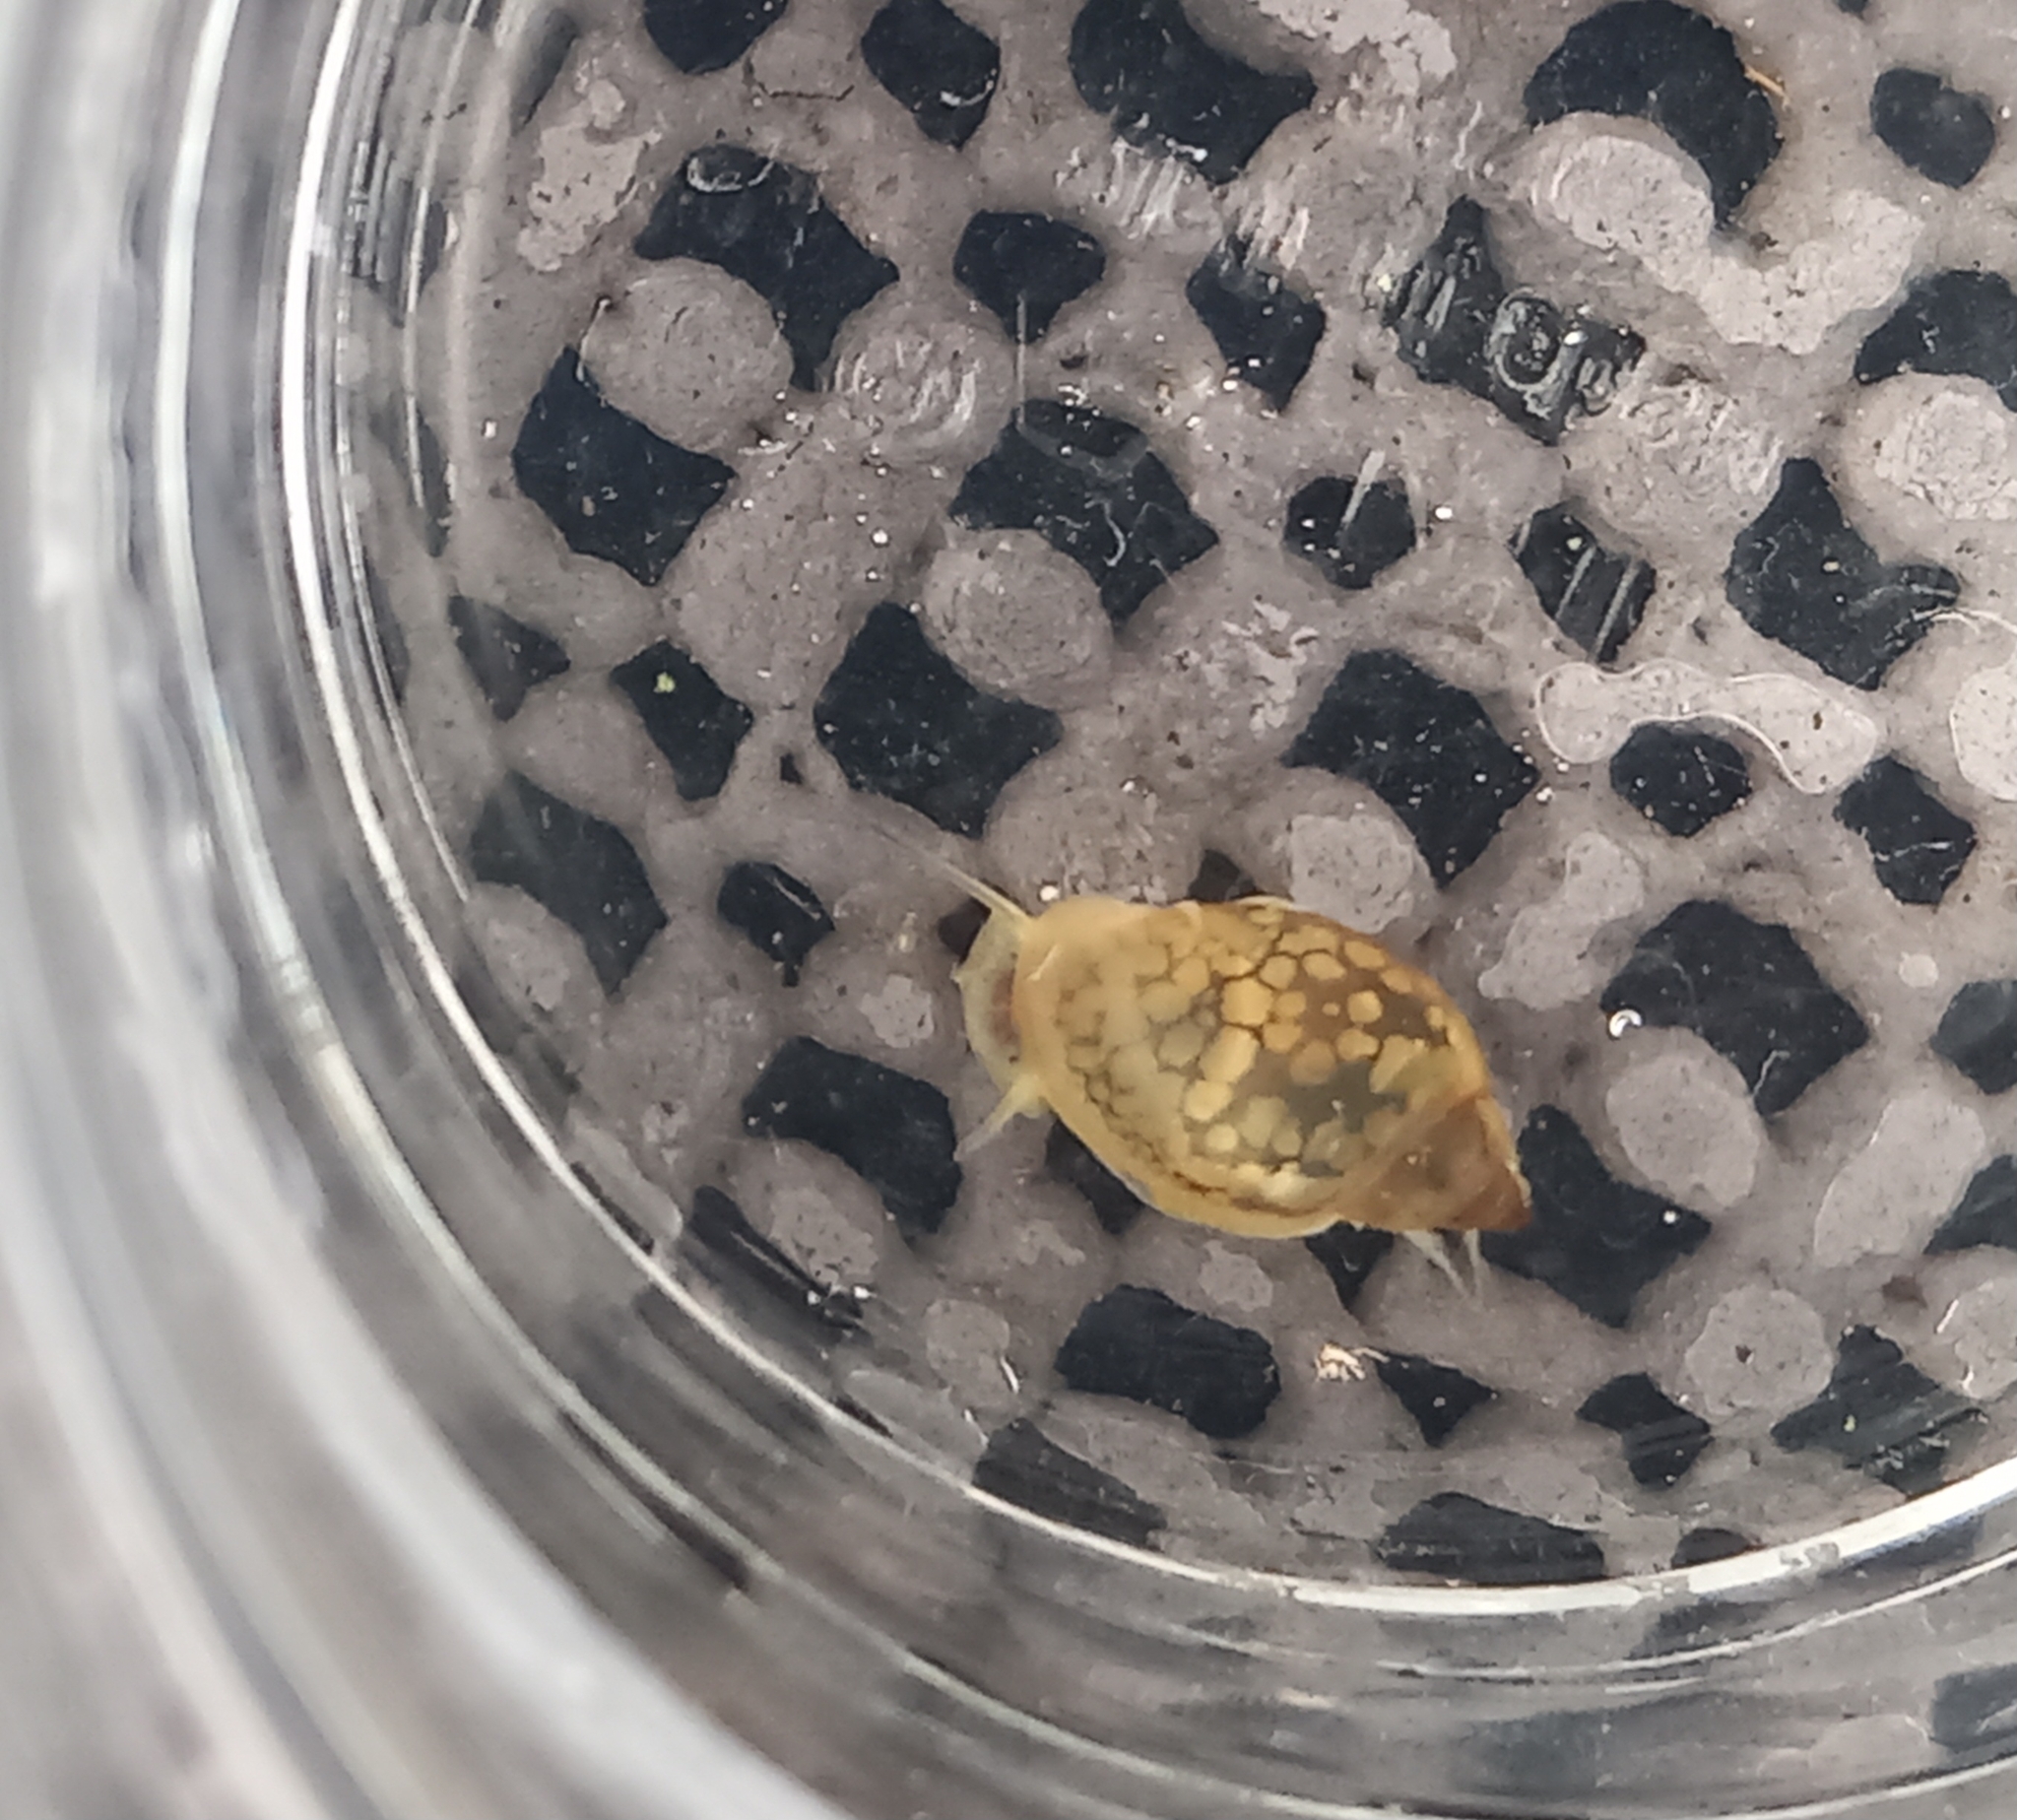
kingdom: Animalia
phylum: Mollusca
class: Gastropoda
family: Physidae
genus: Physella
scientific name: Physella acuta
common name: European physa
